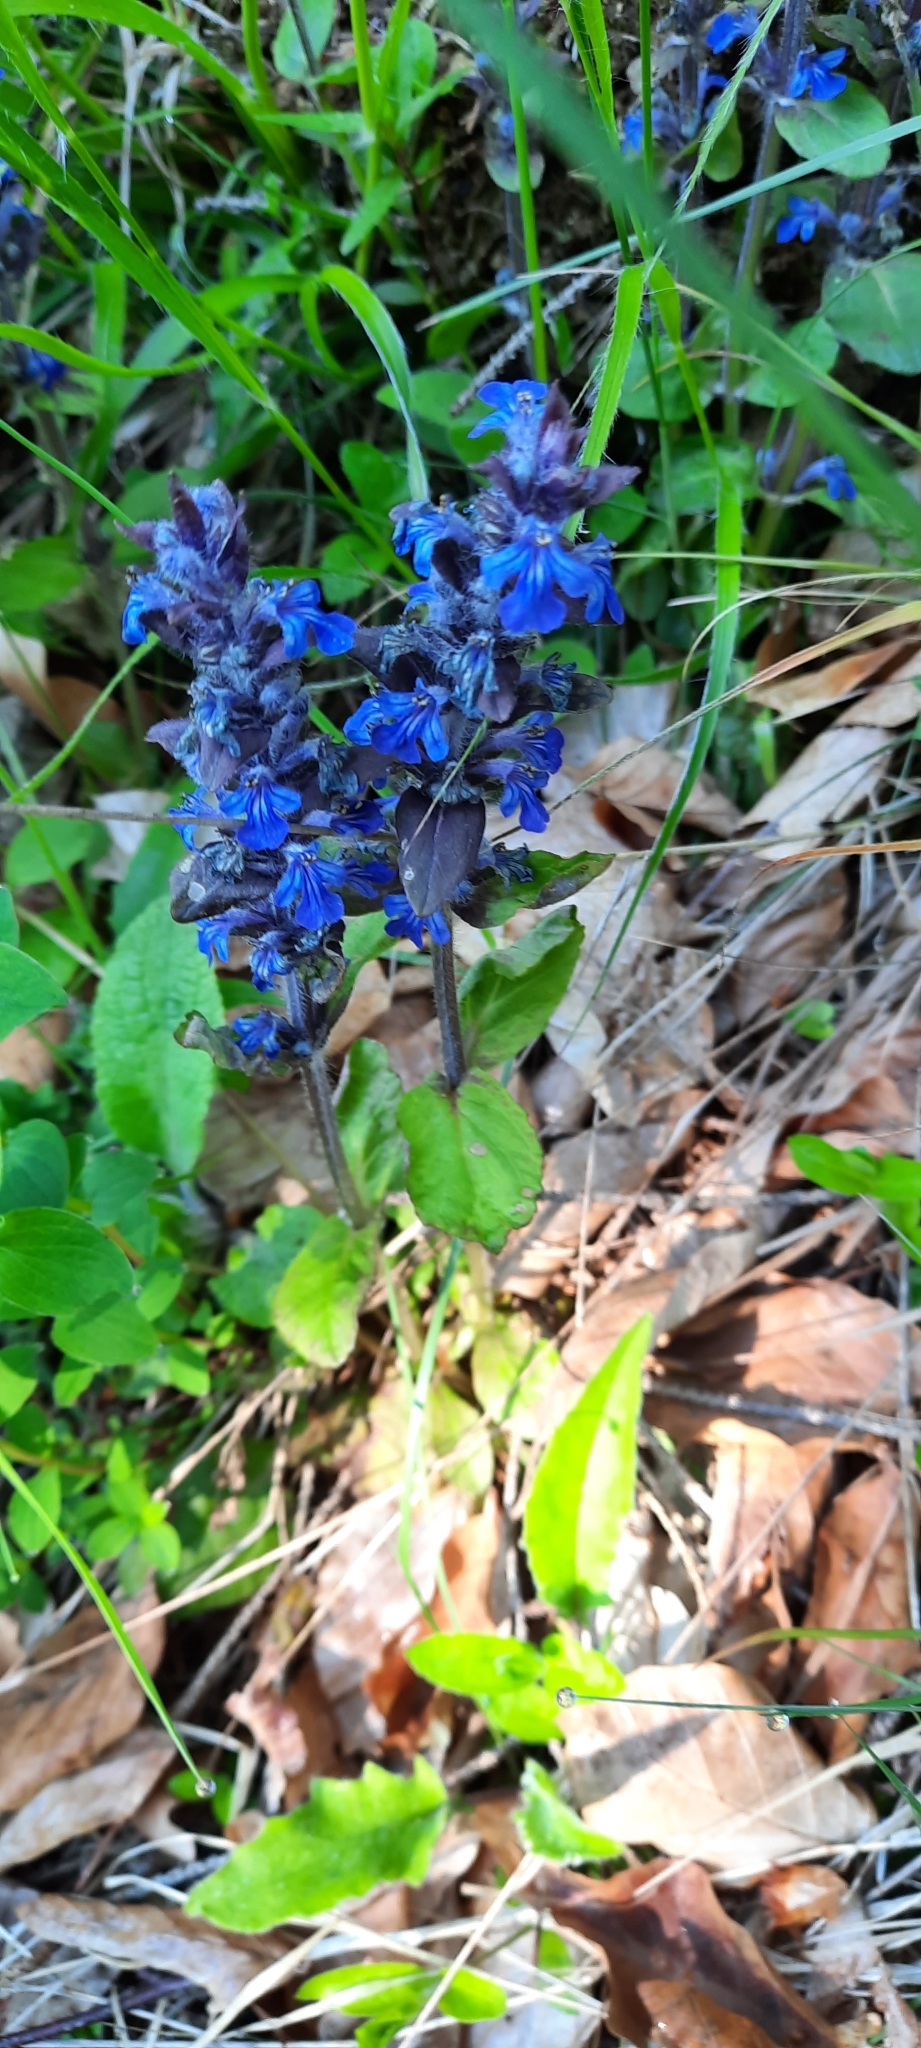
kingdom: Plantae
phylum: Tracheophyta
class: Magnoliopsida
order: Lamiales
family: Lamiaceae
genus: Ajuga
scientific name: Ajuga reptans
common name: Bugle
